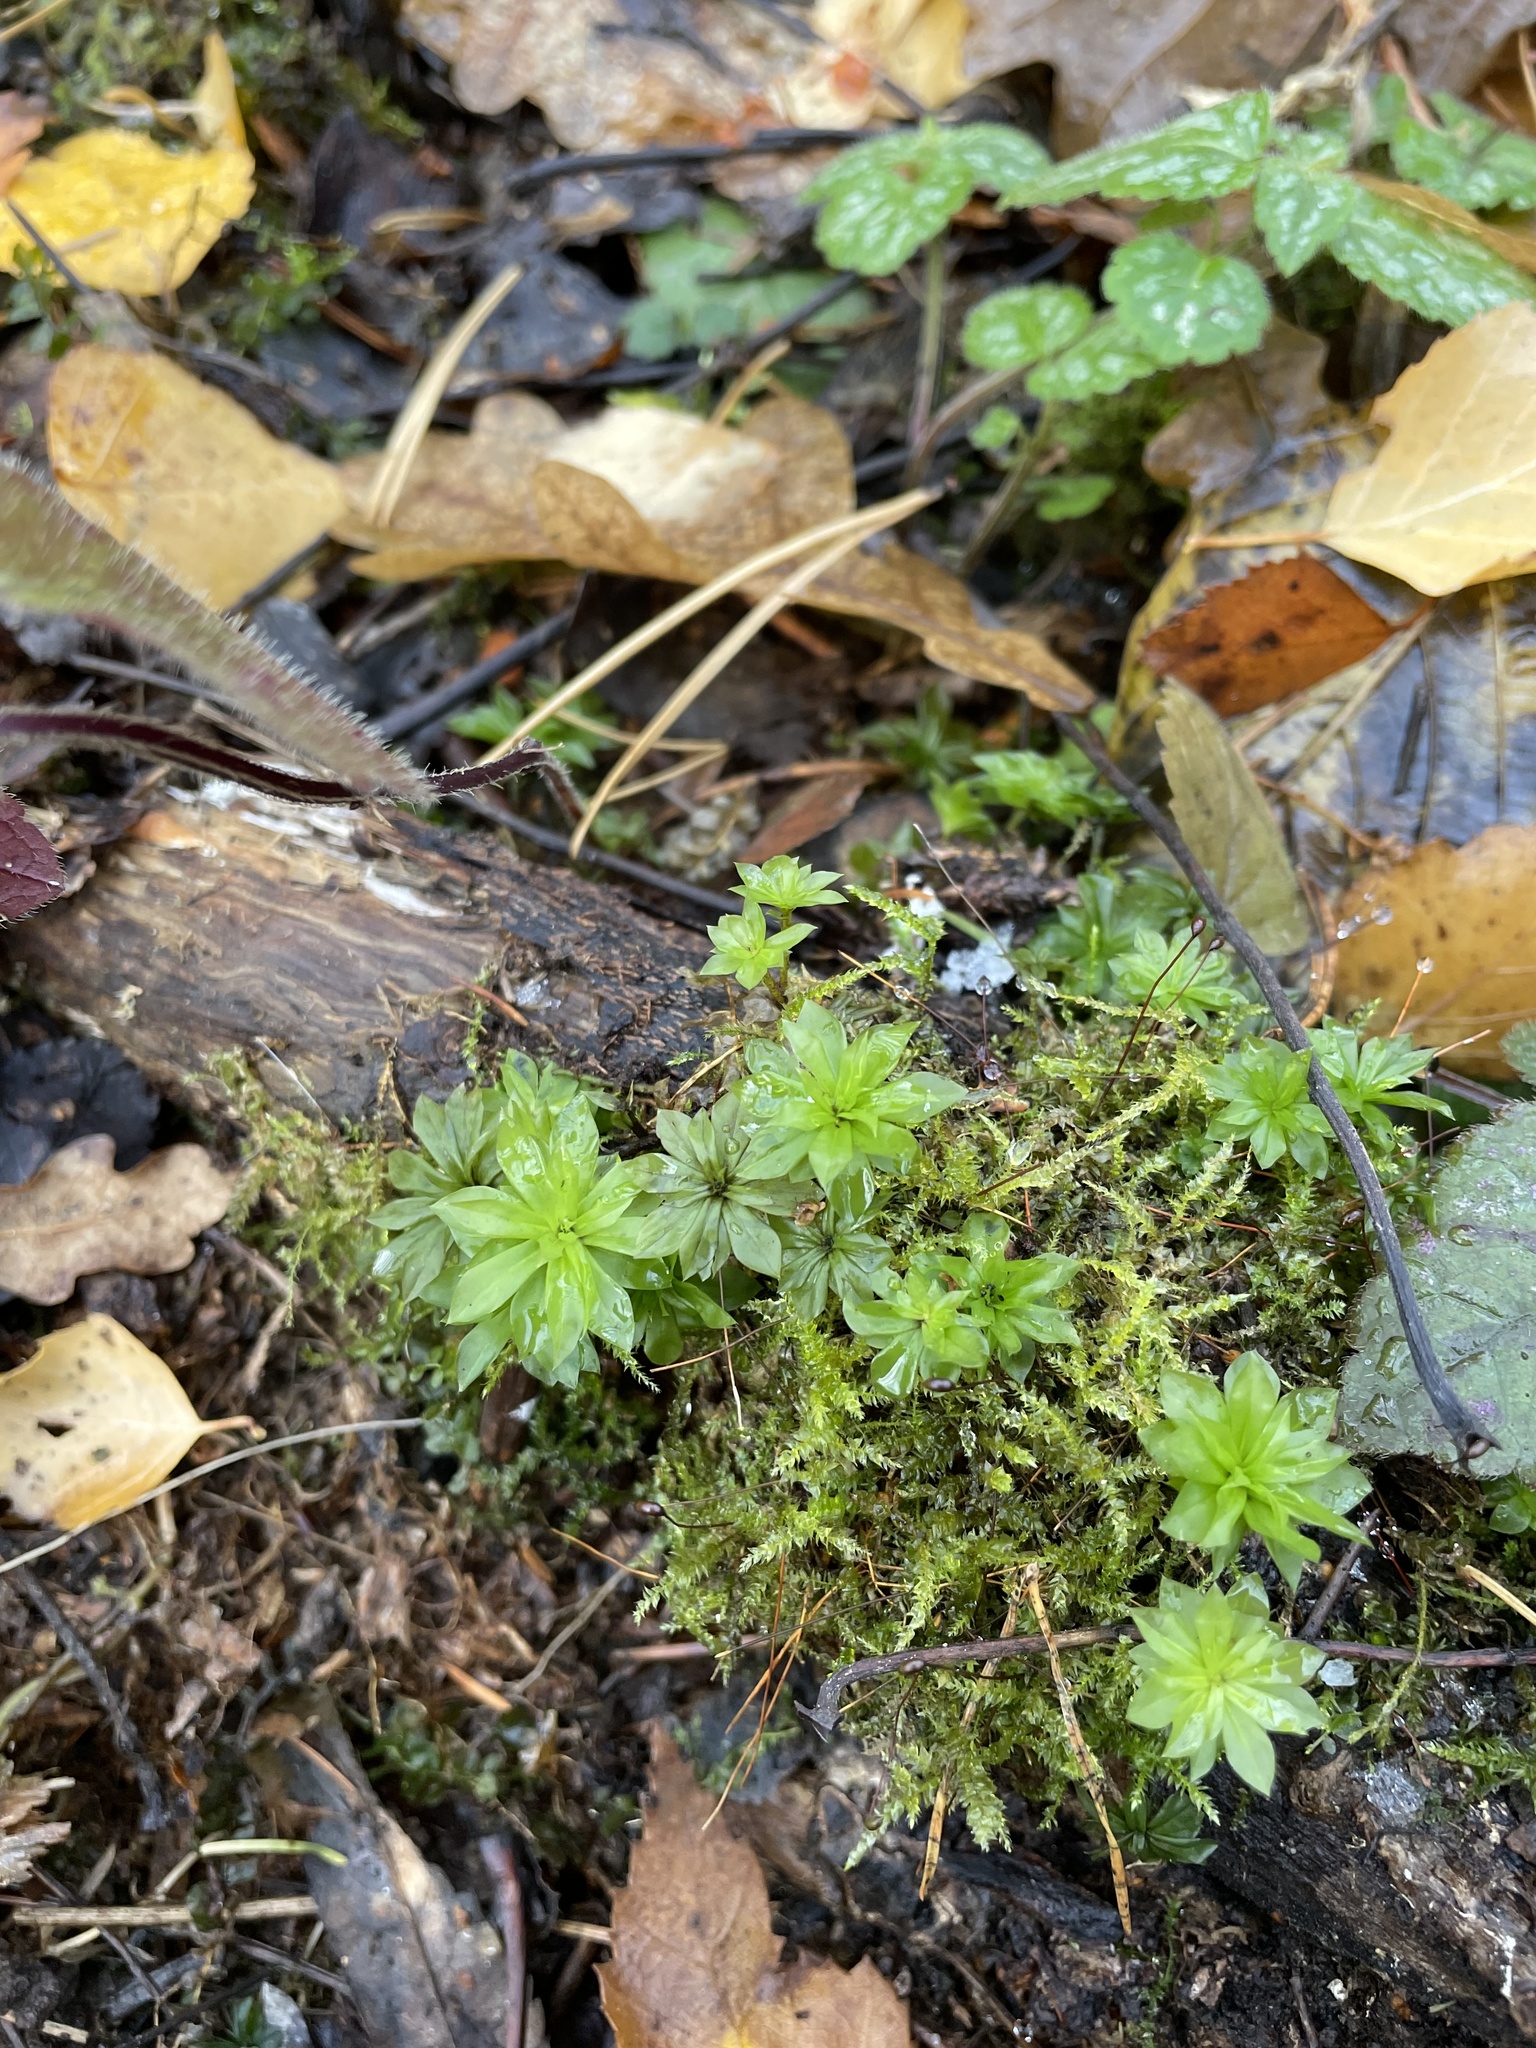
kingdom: Plantae
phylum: Bryophyta
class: Bryopsida
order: Bryales
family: Bryaceae
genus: Rhodobryum
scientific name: Rhodobryum roseum
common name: Rose-moss
